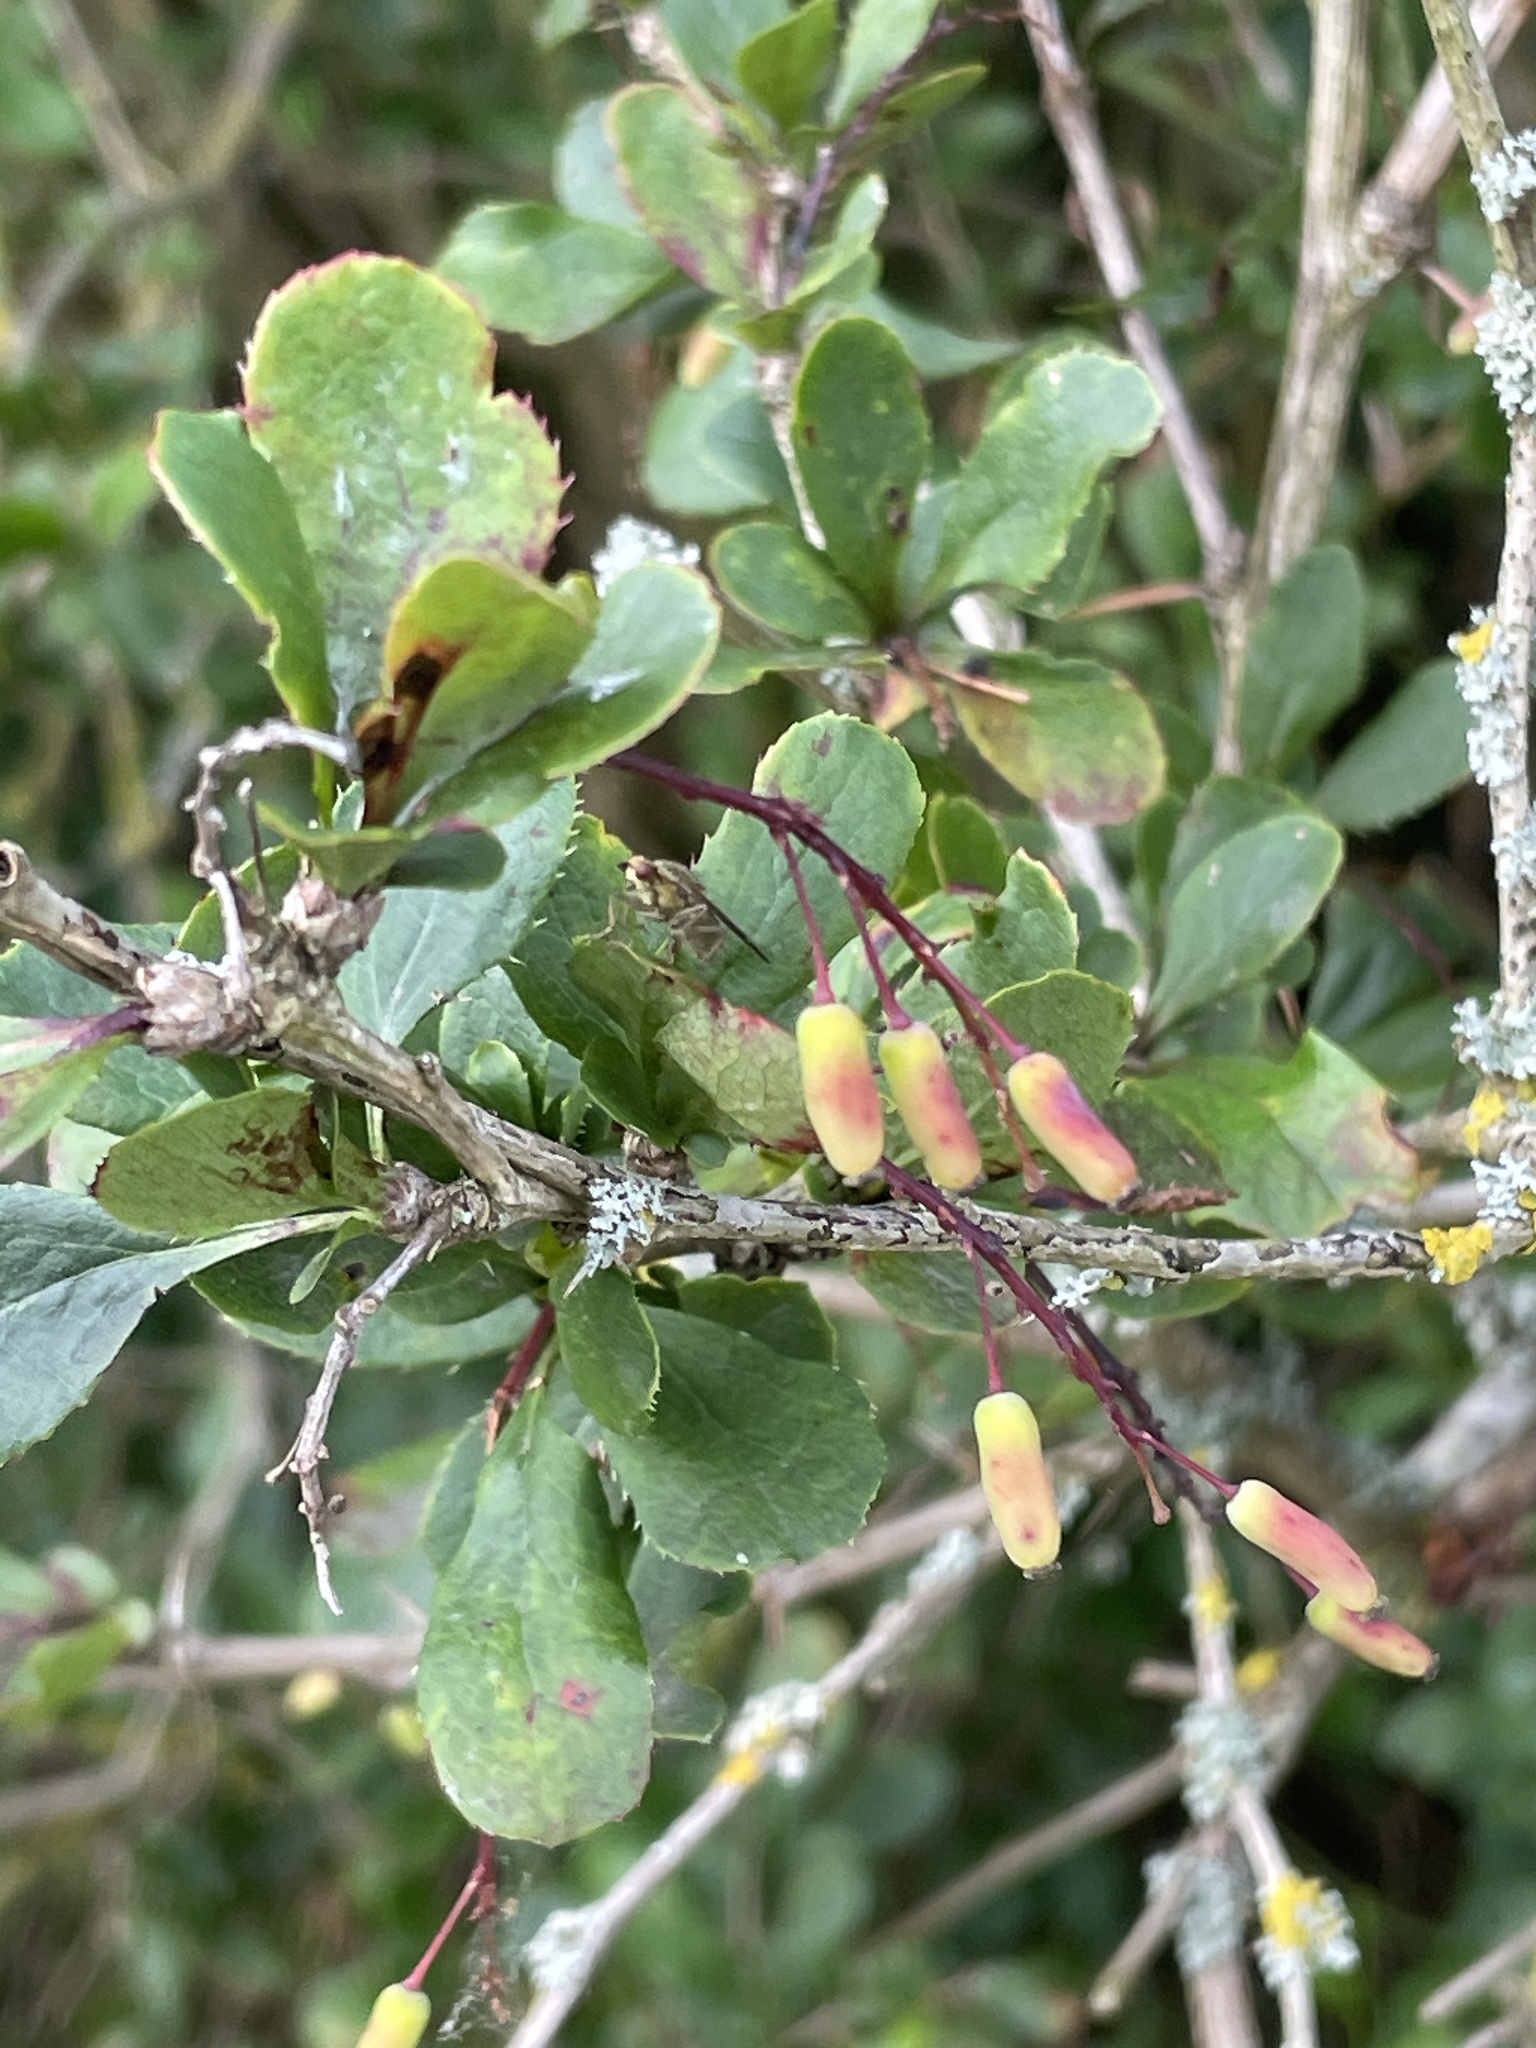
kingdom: Plantae
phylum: Tracheophyta
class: Magnoliopsida
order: Ranunculales
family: Berberidaceae
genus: Berberis
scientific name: Berberis vulgaris
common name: Barberry
